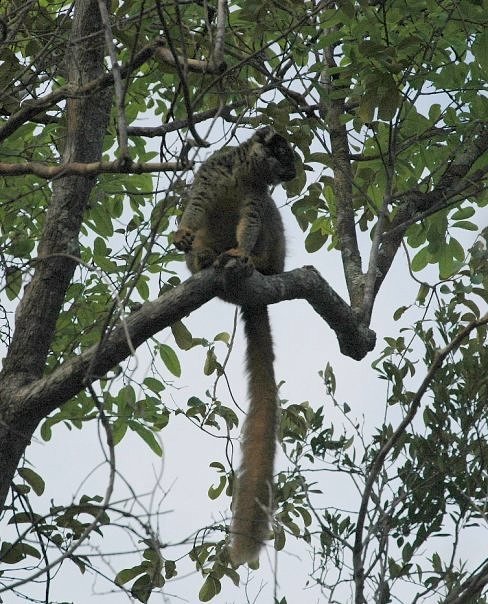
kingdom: Animalia
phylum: Chordata
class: Mammalia
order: Primates
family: Lemuridae
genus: Eulemur
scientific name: Eulemur fulvus
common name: Brown lemur
